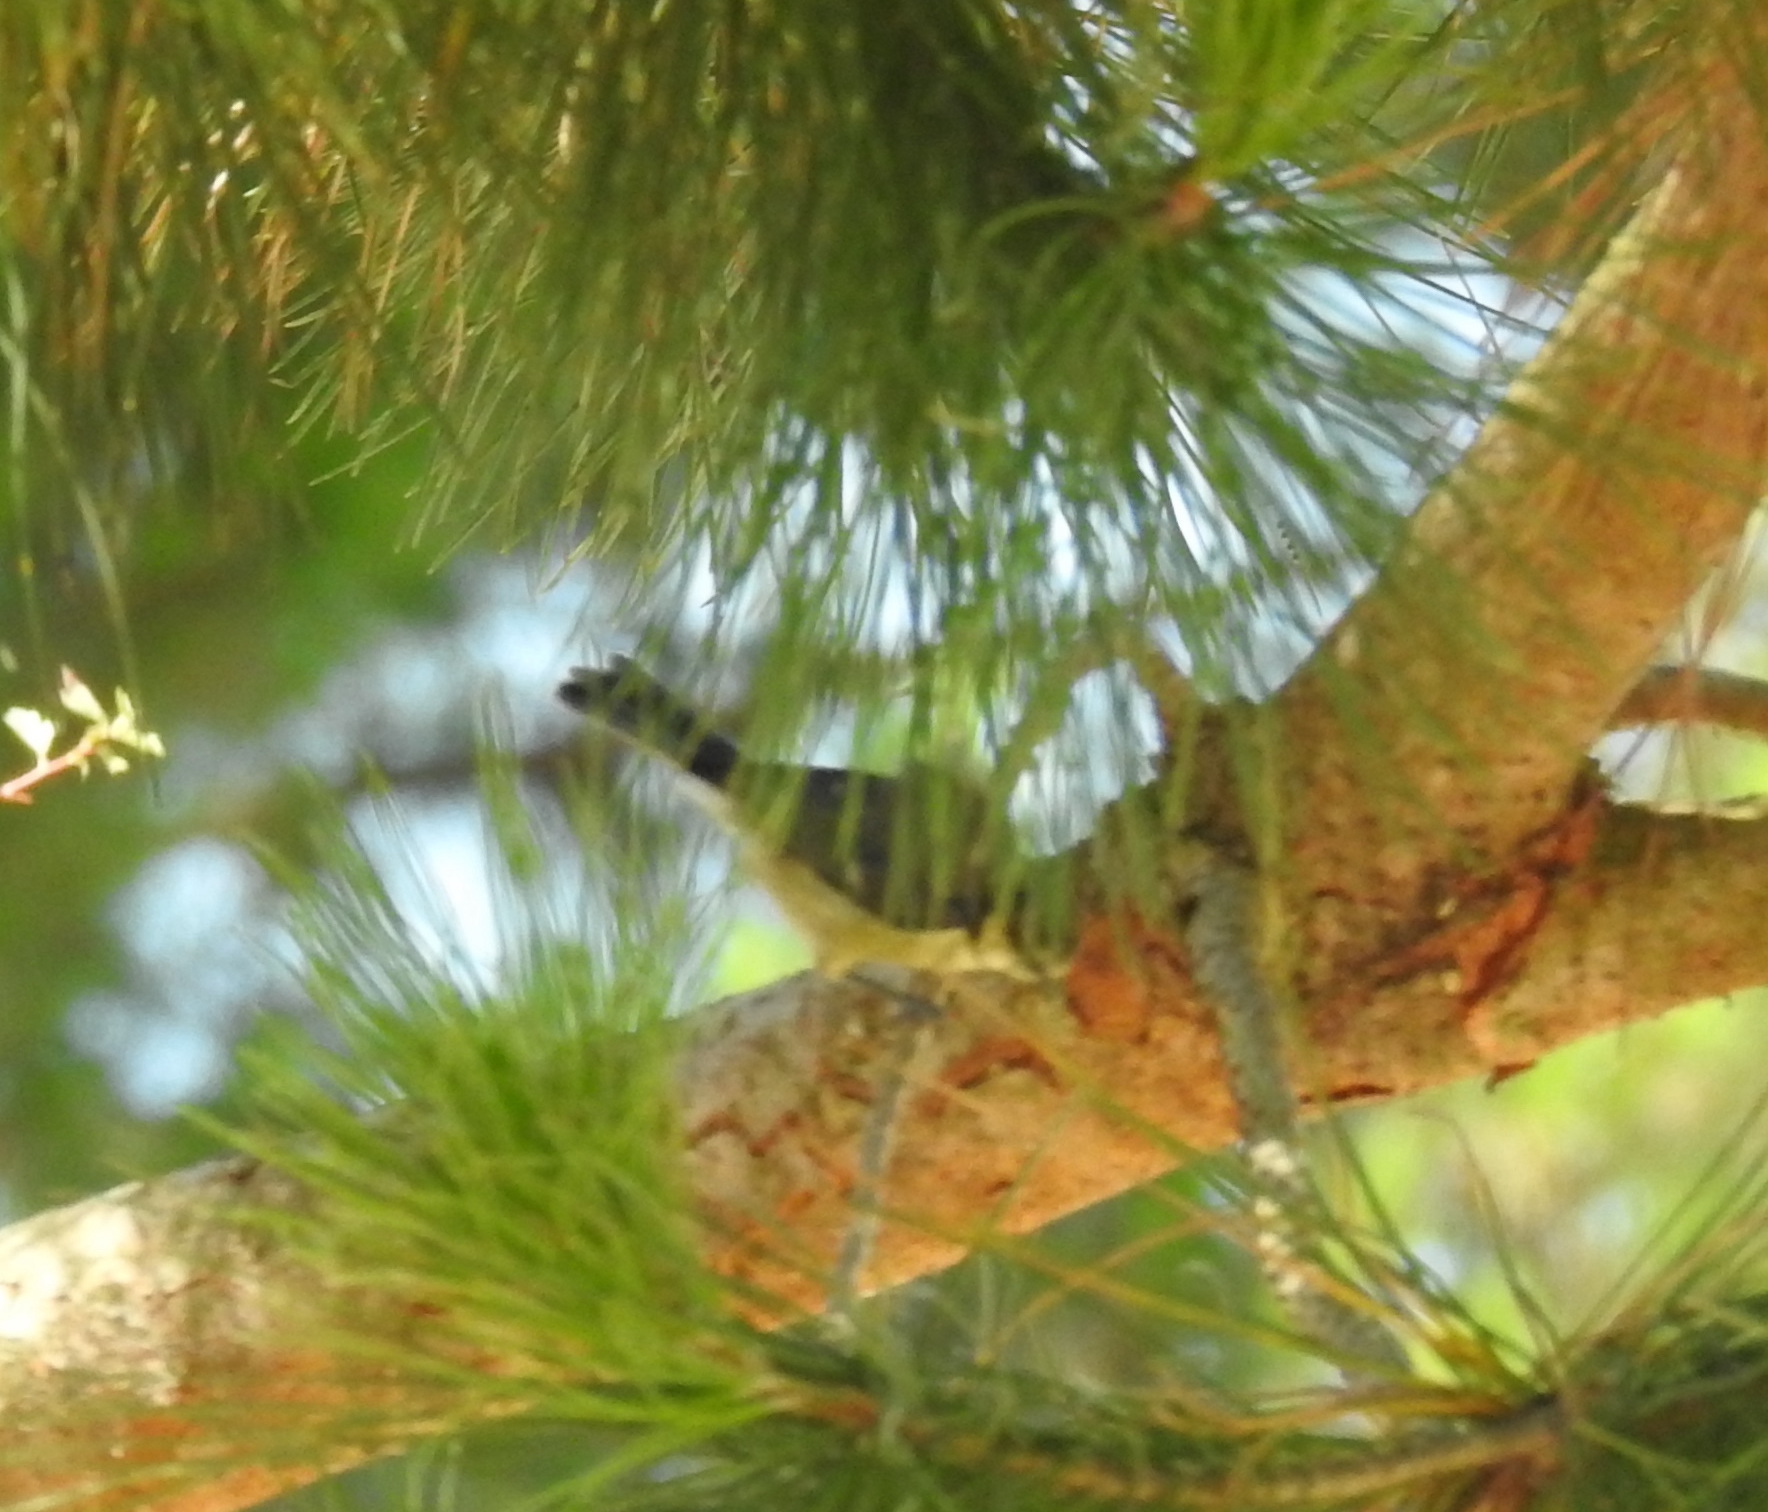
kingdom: Animalia
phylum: Chordata
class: Aves
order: Passeriformes
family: Paridae
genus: Cyanistes
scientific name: Cyanistes caeruleus
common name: Eurasian blue tit
